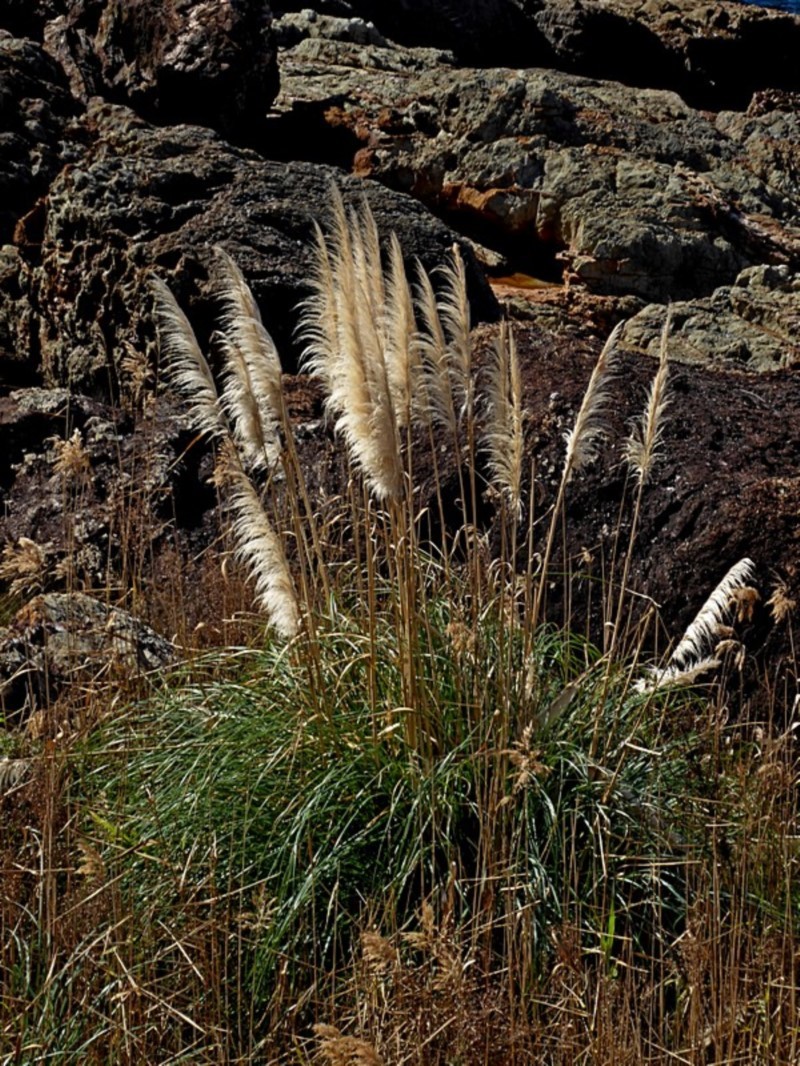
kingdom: Plantae
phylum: Tracheophyta
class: Liliopsida
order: Poales
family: Poaceae
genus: Cortaderia
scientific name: Cortaderia selloana
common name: Uruguayan pampas grass
